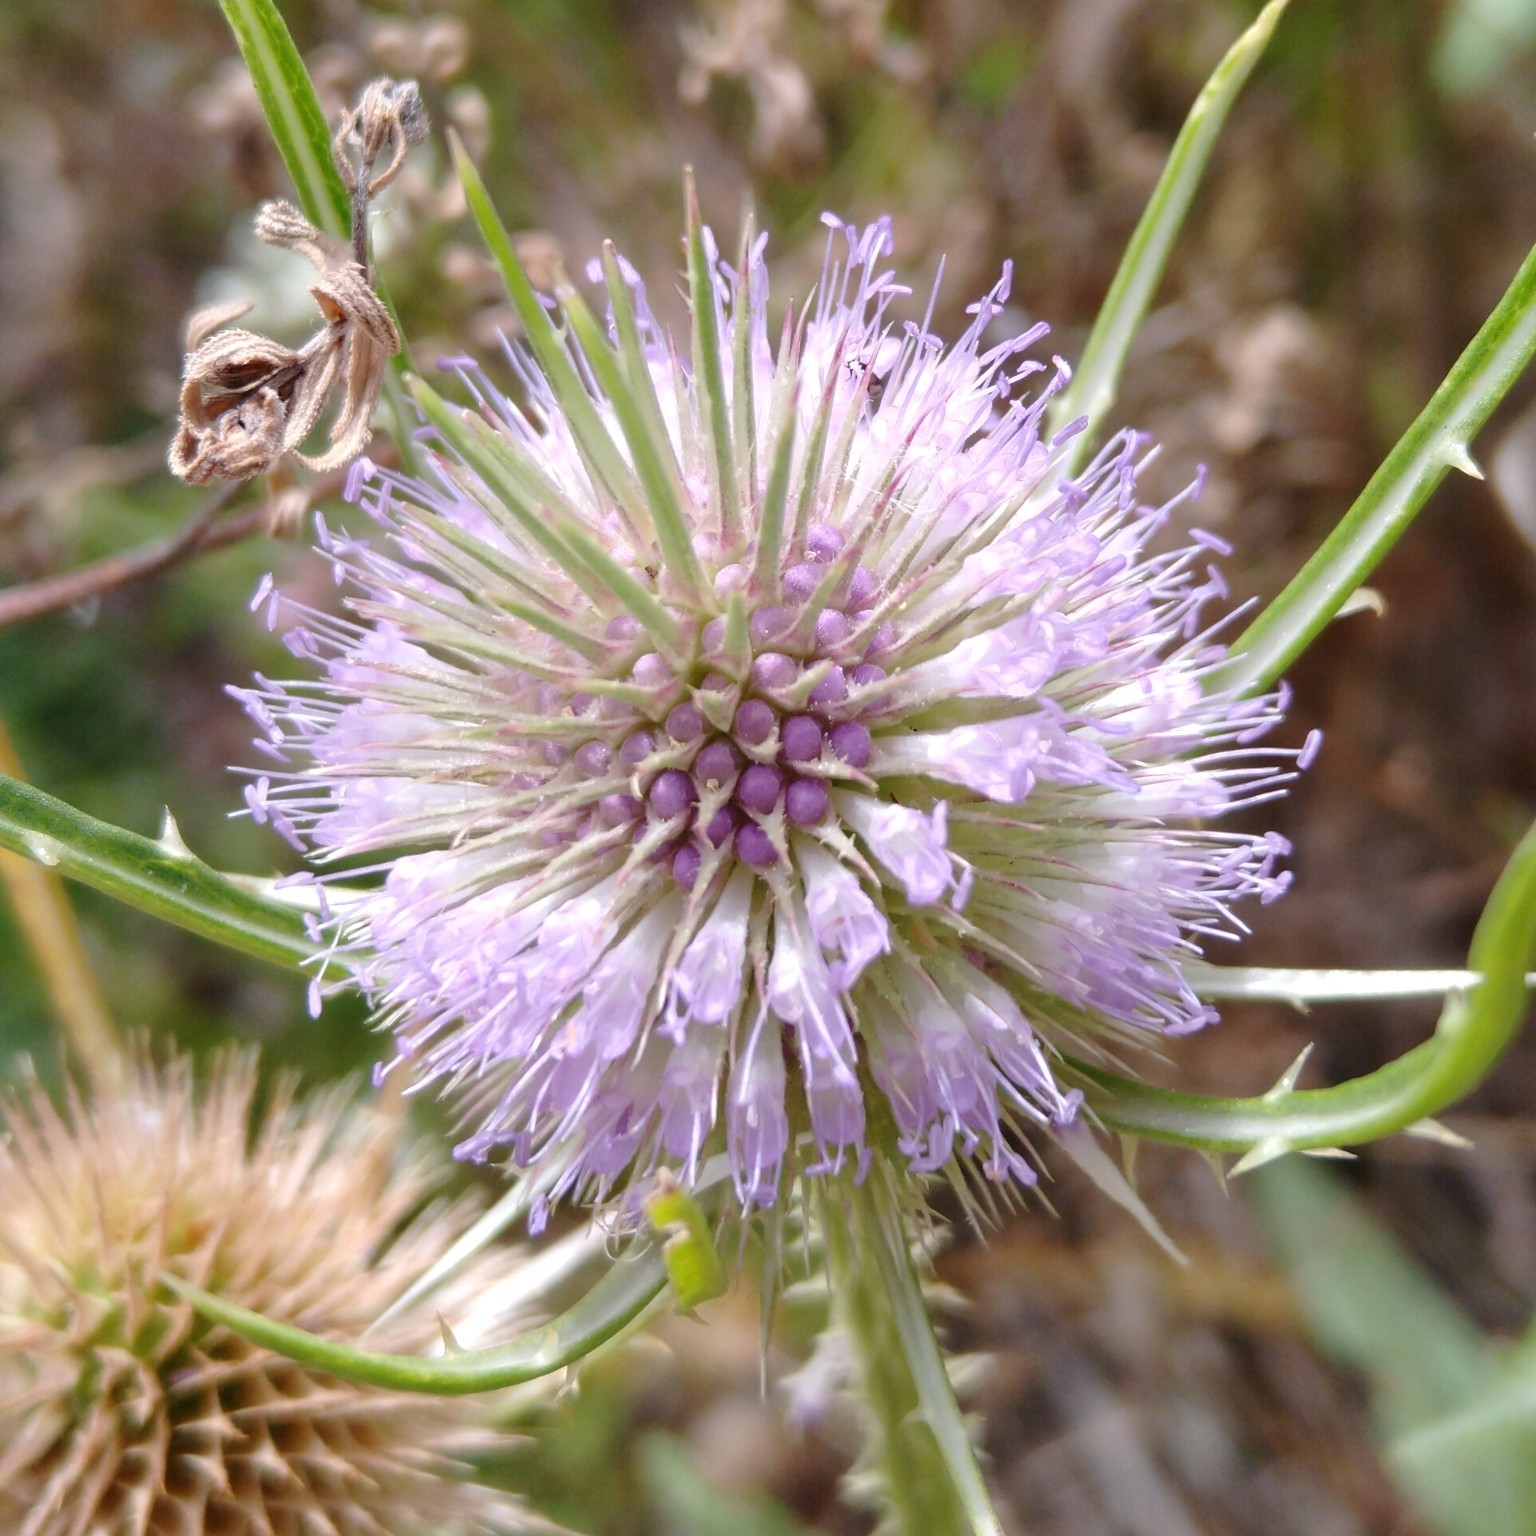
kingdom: Plantae
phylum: Tracheophyta
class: Magnoliopsida
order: Dipsacales
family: Caprifoliaceae
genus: Dipsacus
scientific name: Dipsacus fullonum
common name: Teasel
